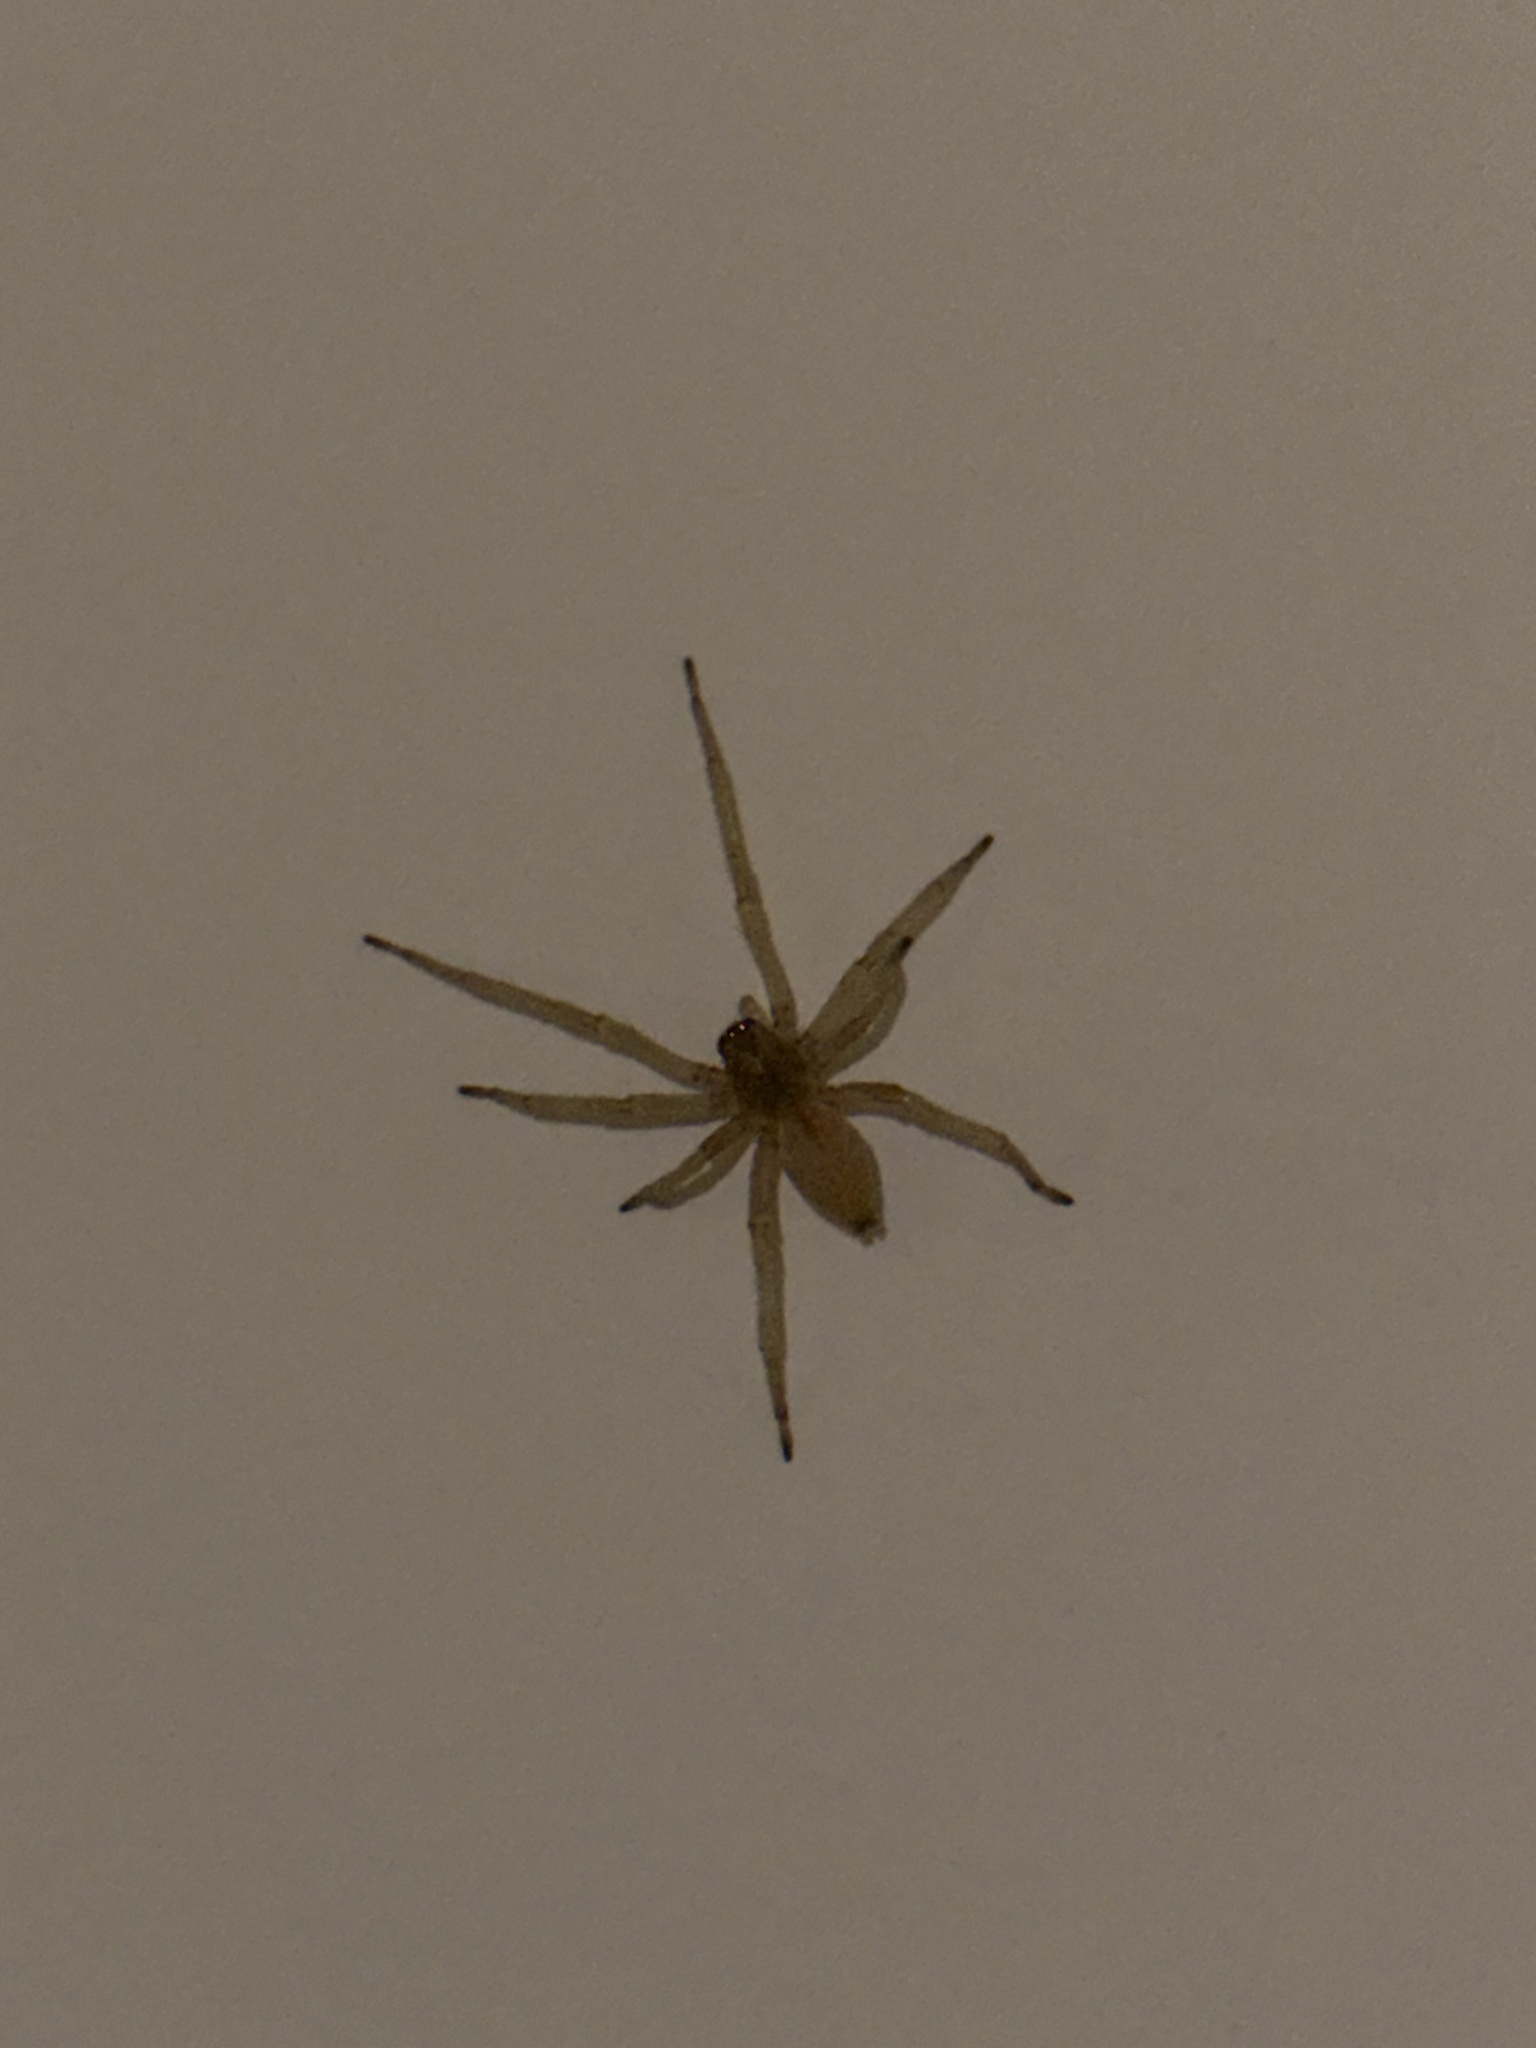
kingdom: Animalia
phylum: Arthropoda
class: Arachnida
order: Araneae
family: Cheiracanthiidae
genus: Cheiracanthium
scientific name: Cheiracanthium
